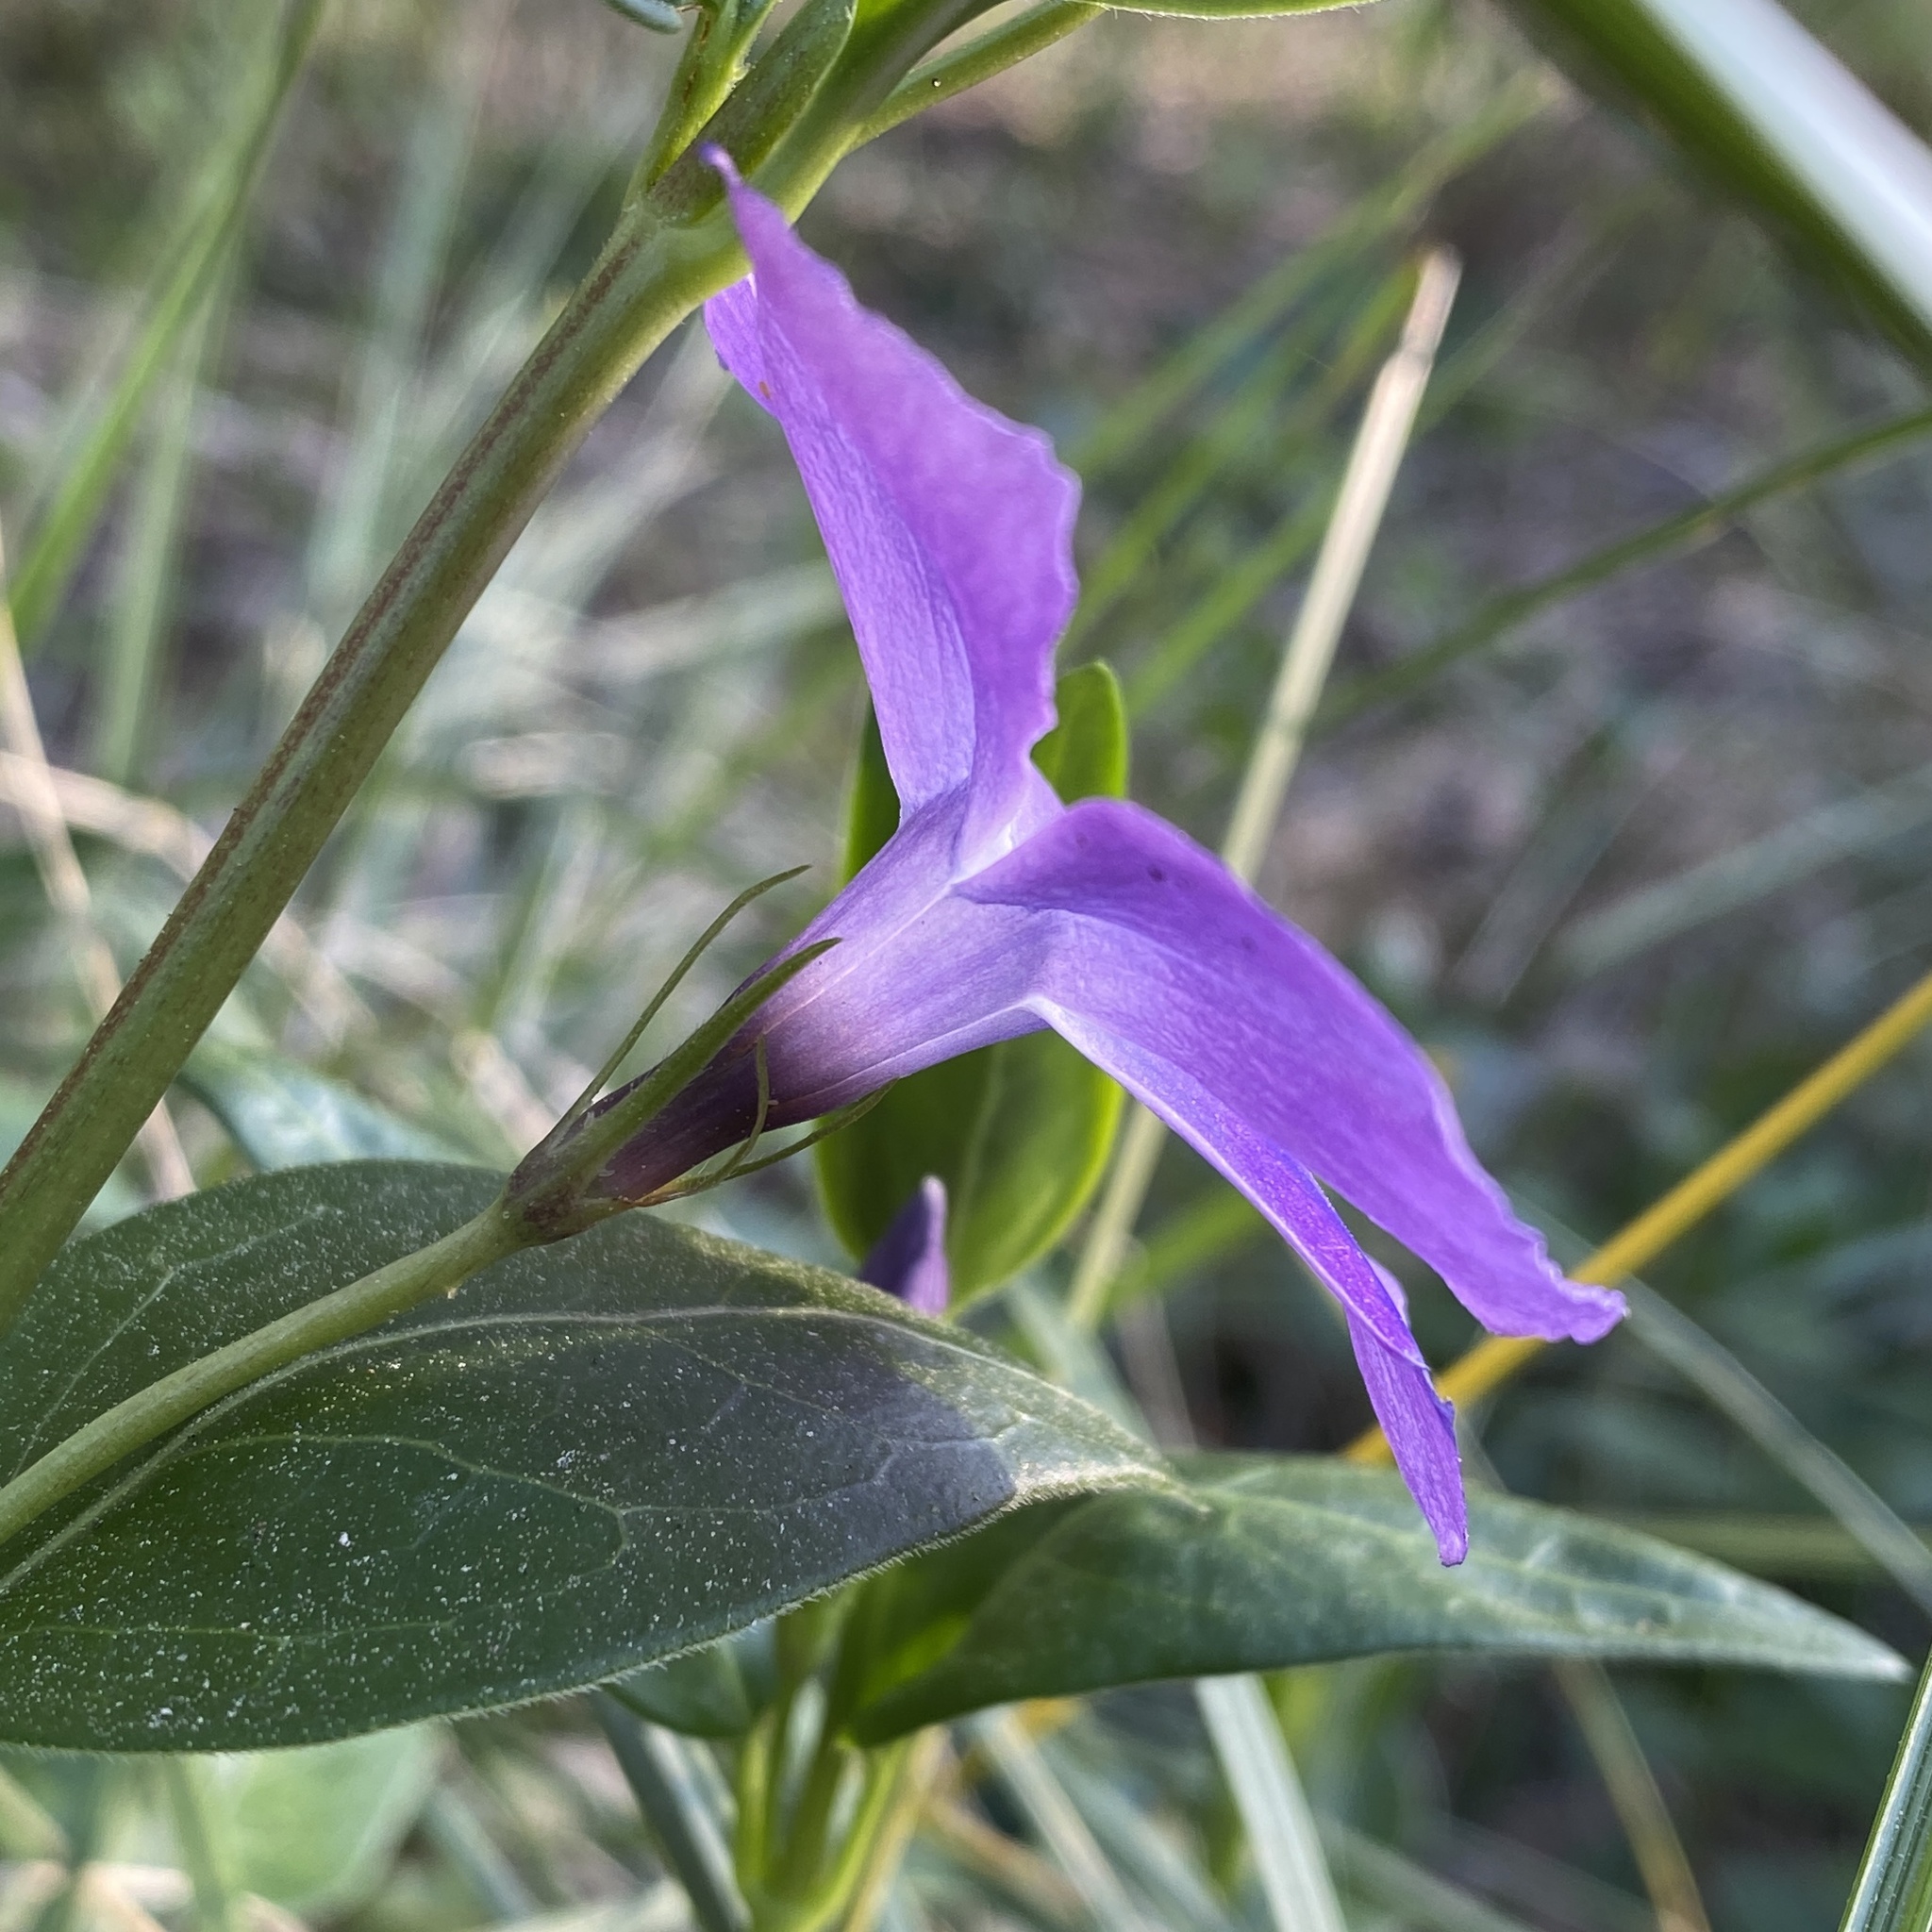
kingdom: Plantae
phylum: Tracheophyta
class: Magnoliopsida
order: Gentianales
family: Apocynaceae
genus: Vinca
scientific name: Vinca major
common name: Greater periwinkle
